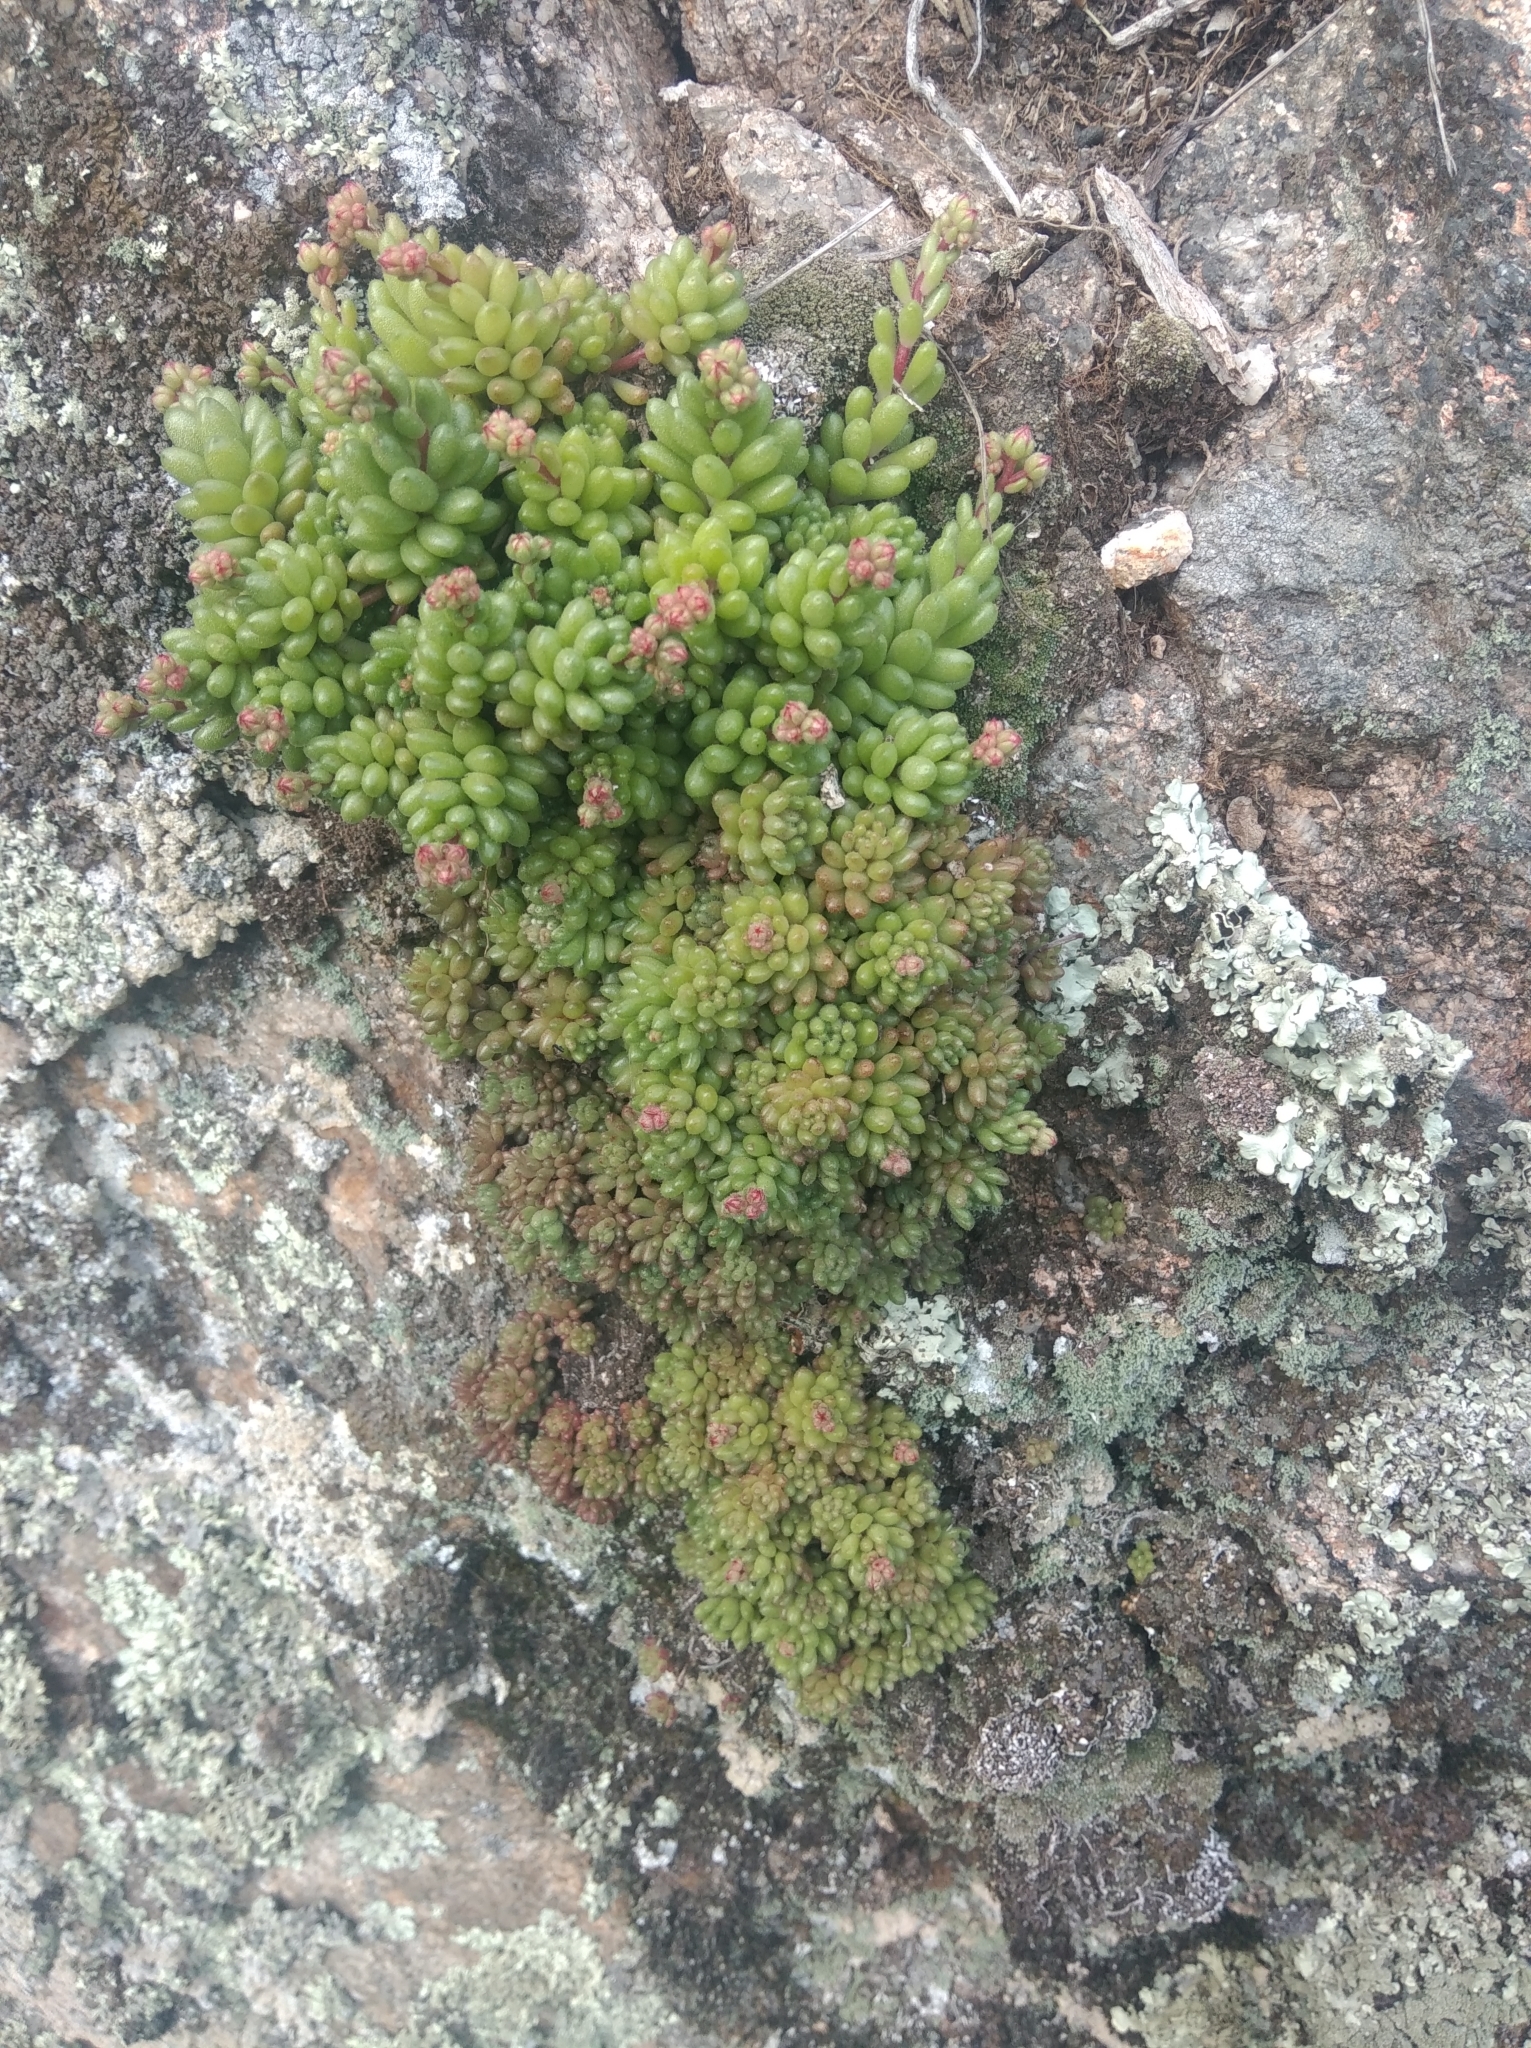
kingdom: Plantae
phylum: Tracheophyta
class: Magnoliopsida
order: Saxifragales
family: Crassulaceae
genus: Sedum
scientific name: Sedum hirsutum
